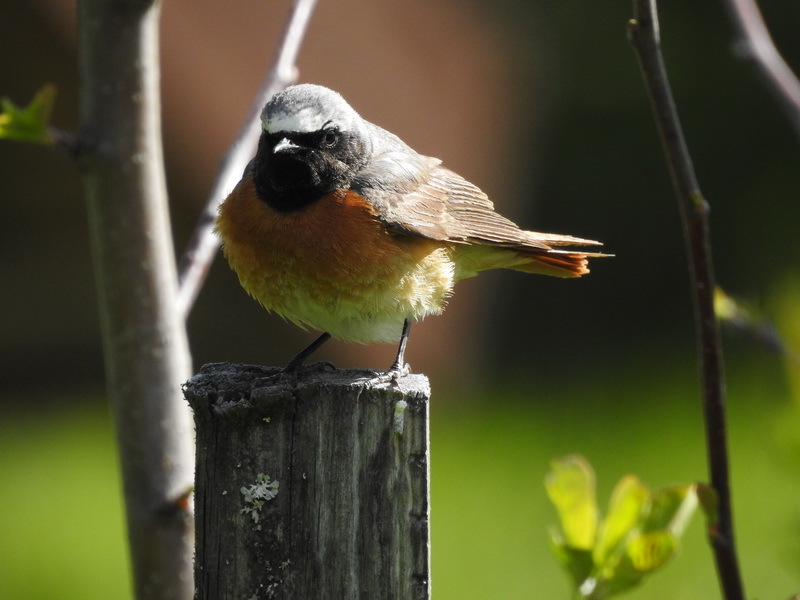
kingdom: Animalia
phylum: Chordata
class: Aves
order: Passeriformes
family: Muscicapidae
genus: Phoenicurus
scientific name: Phoenicurus phoenicurus
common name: Common redstart
